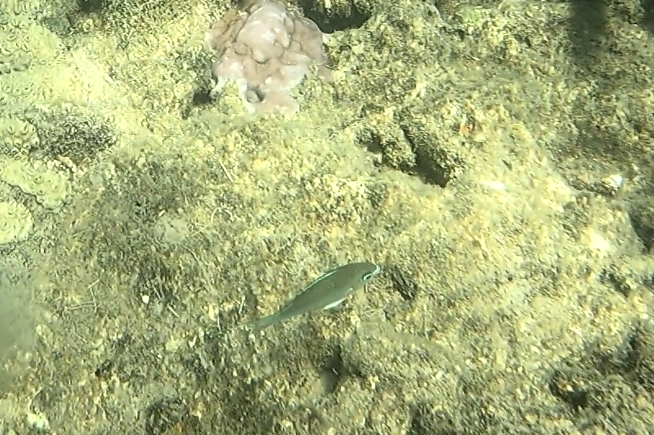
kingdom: Animalia
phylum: Chordata
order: Perciformes
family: Pomacentridae
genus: Chromis
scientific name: Chromis atripectoralis
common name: Black-axil chromis
